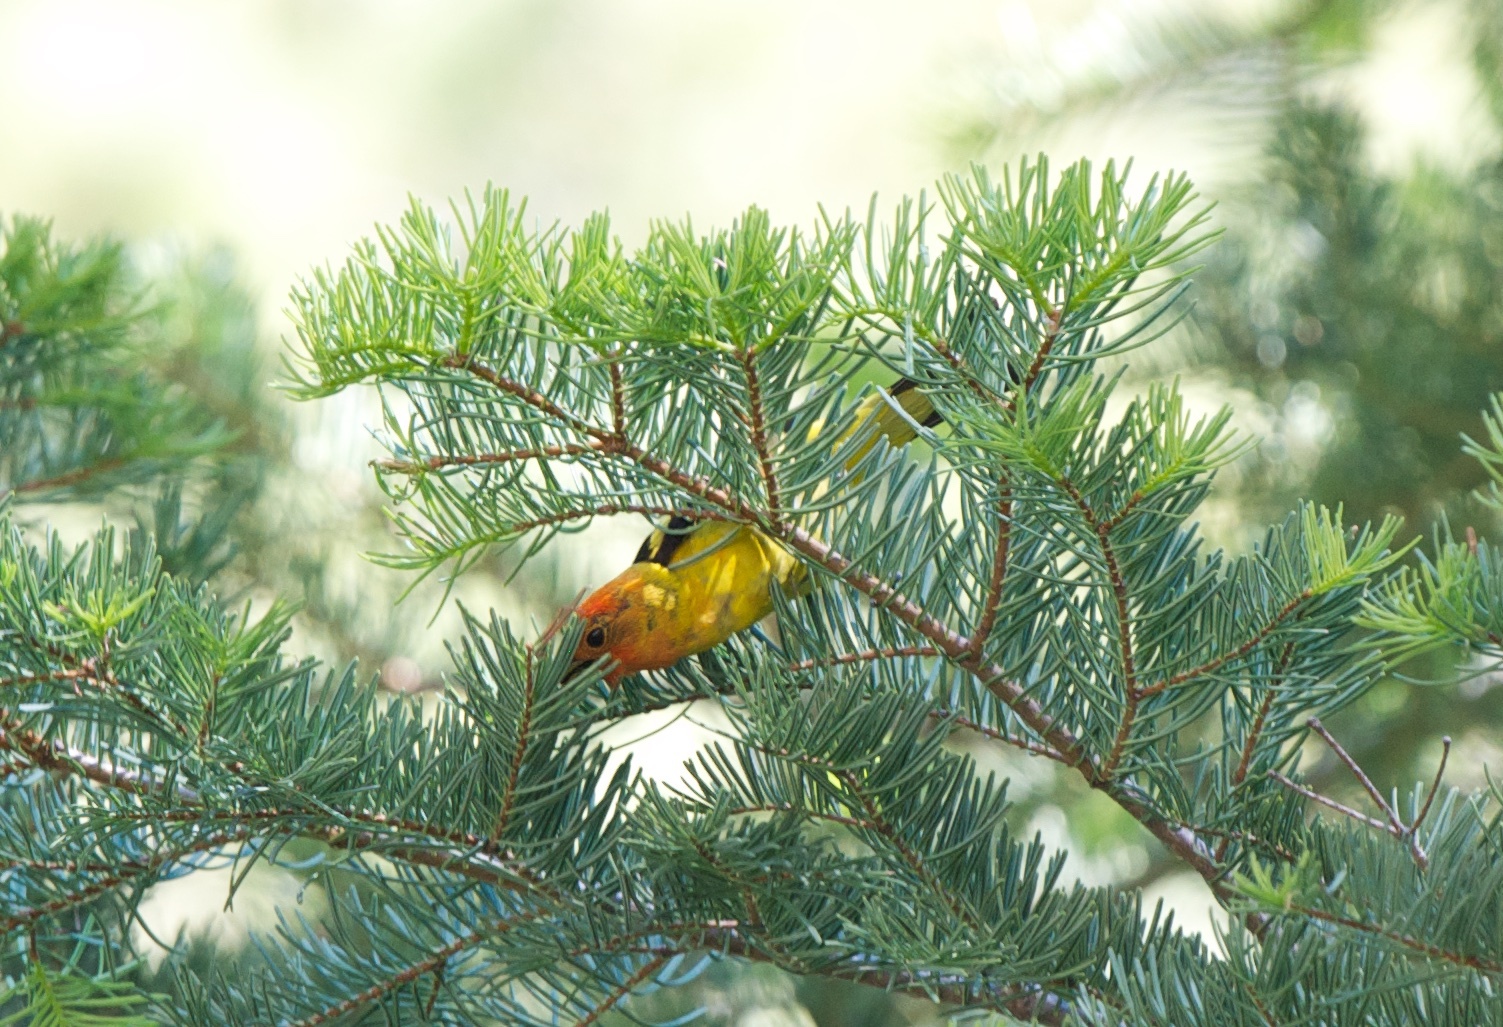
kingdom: Animalia
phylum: Chordata
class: Aves
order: Passeriformes
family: Cardinalidae
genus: Piranga
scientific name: Piranga ludoviciana
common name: Western tanager
